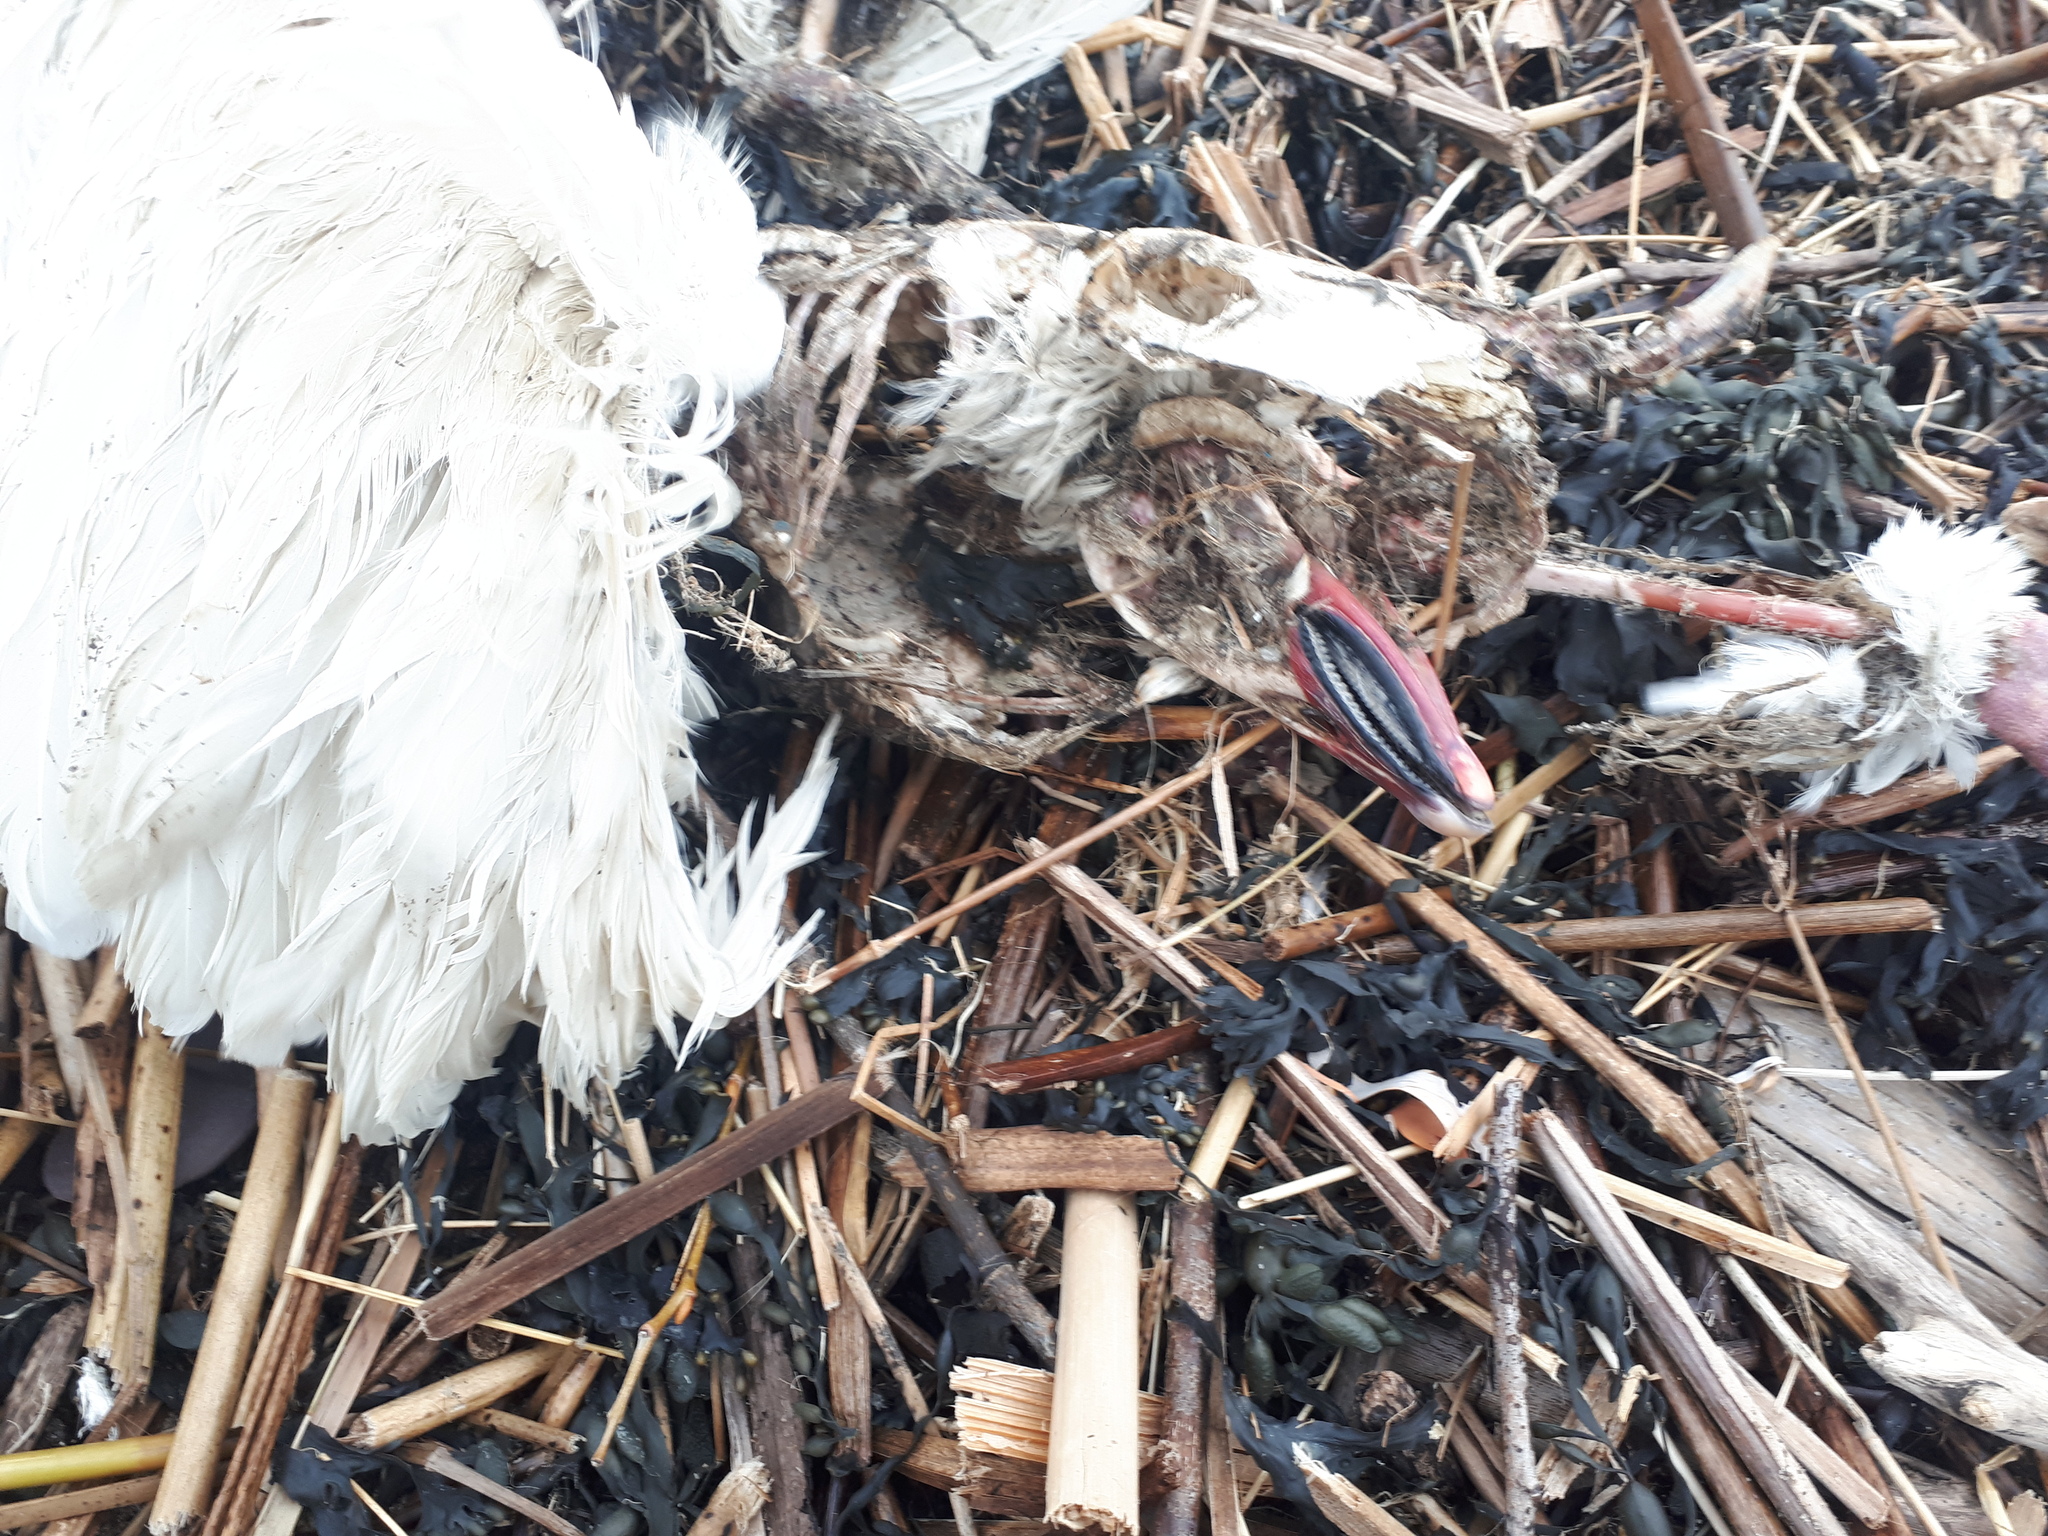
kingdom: Animalia
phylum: Chordata
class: Aves
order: Anseriformes
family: Anatidae
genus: Anser
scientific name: Anser caerulescens
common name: Snow goose
